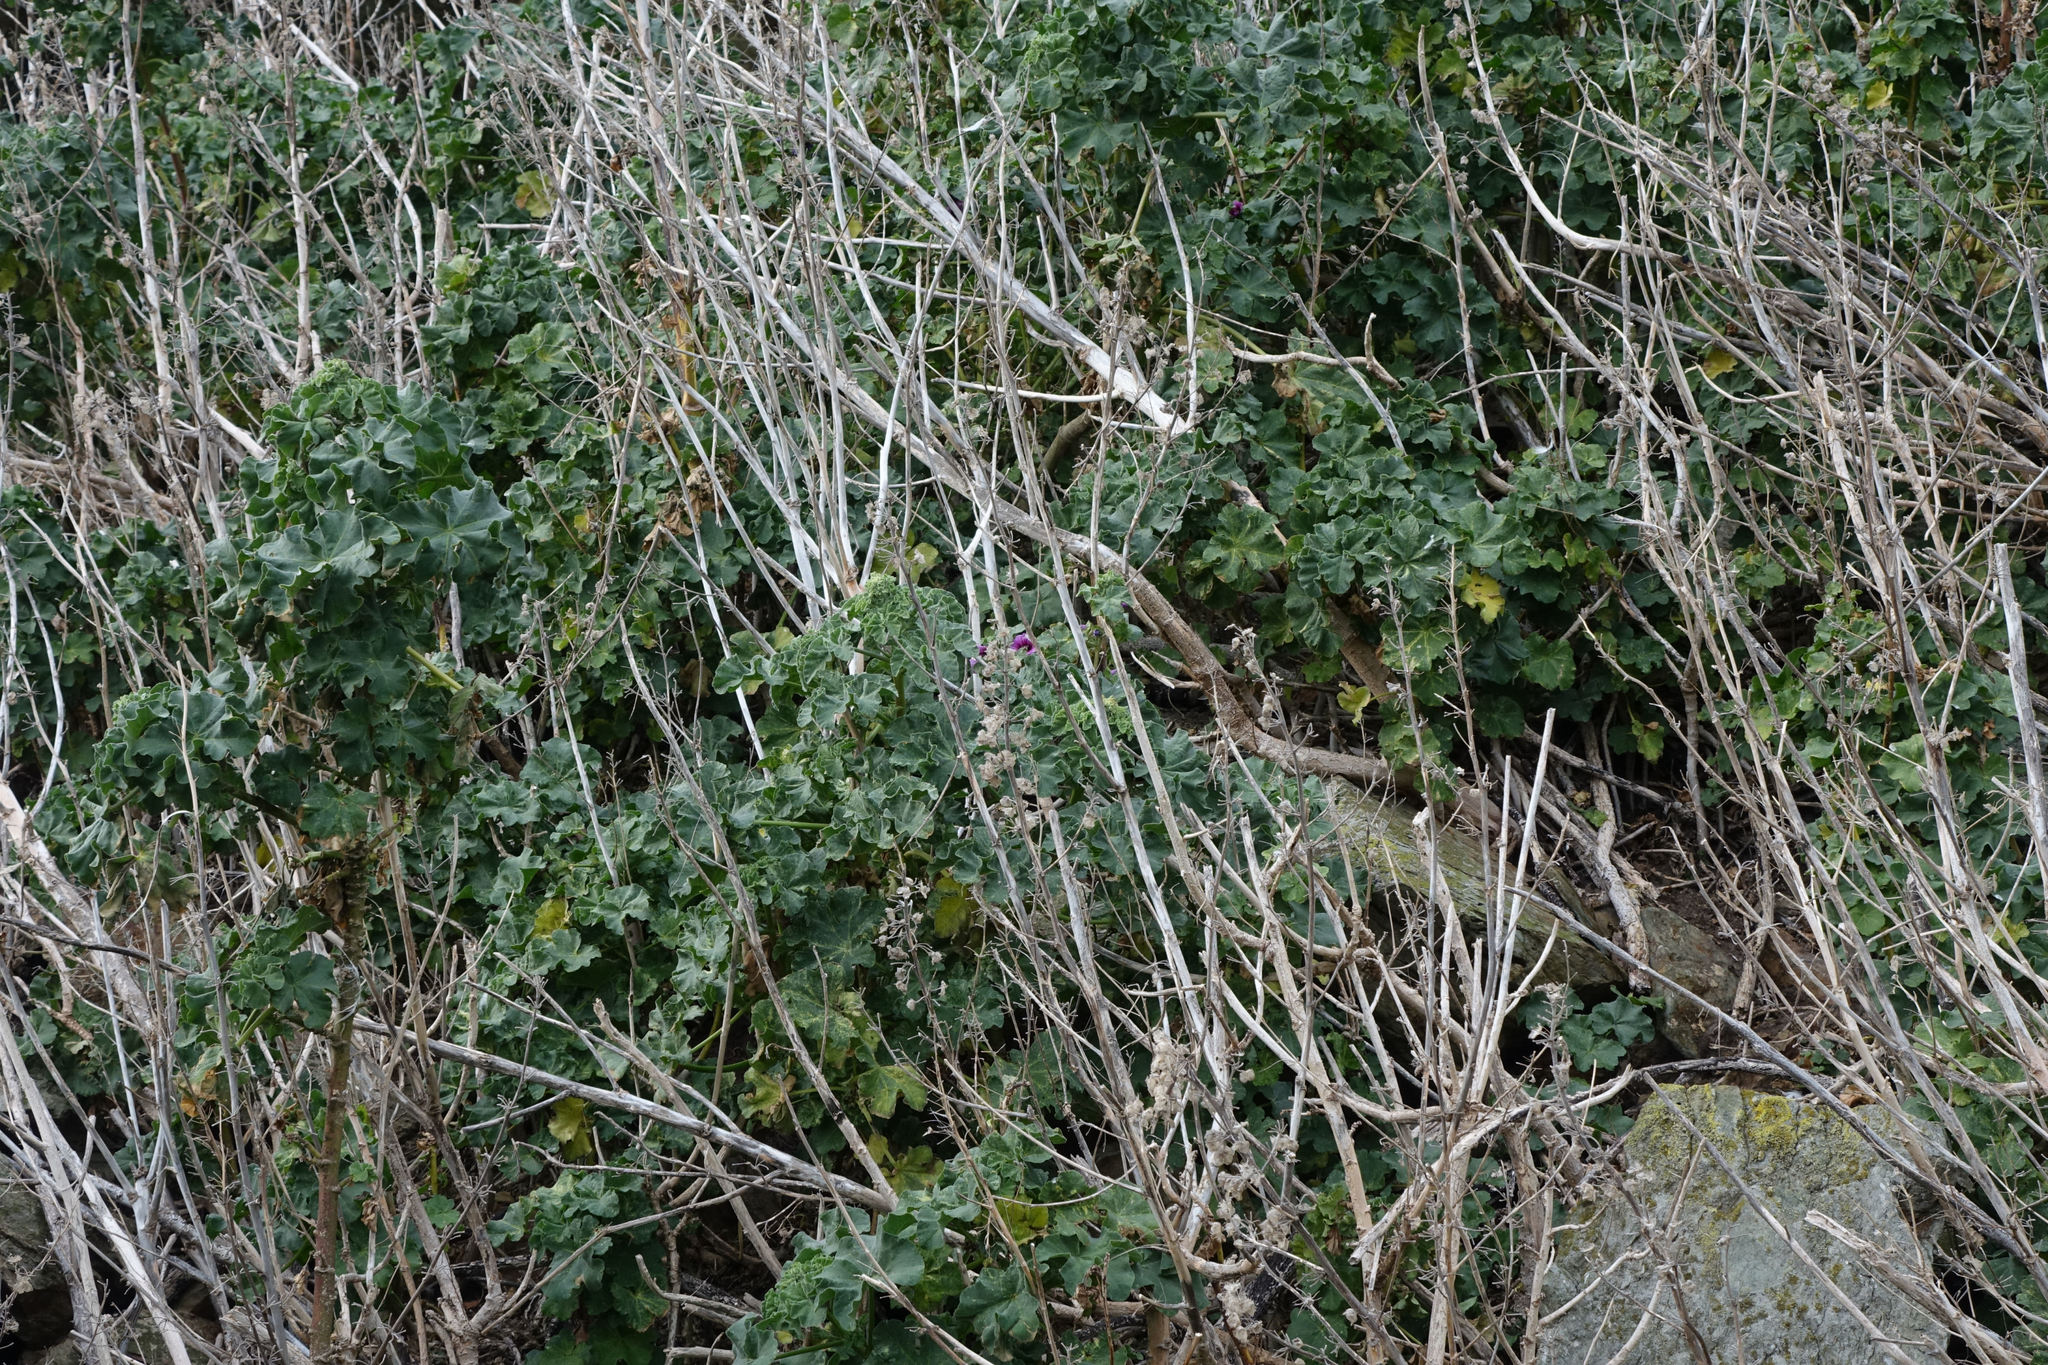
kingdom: Plantae
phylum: Tracheophyta
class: Magnoliopsida
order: Malvales
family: Malvaceae
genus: Malva
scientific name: Malva arborea
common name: Tree mallow
